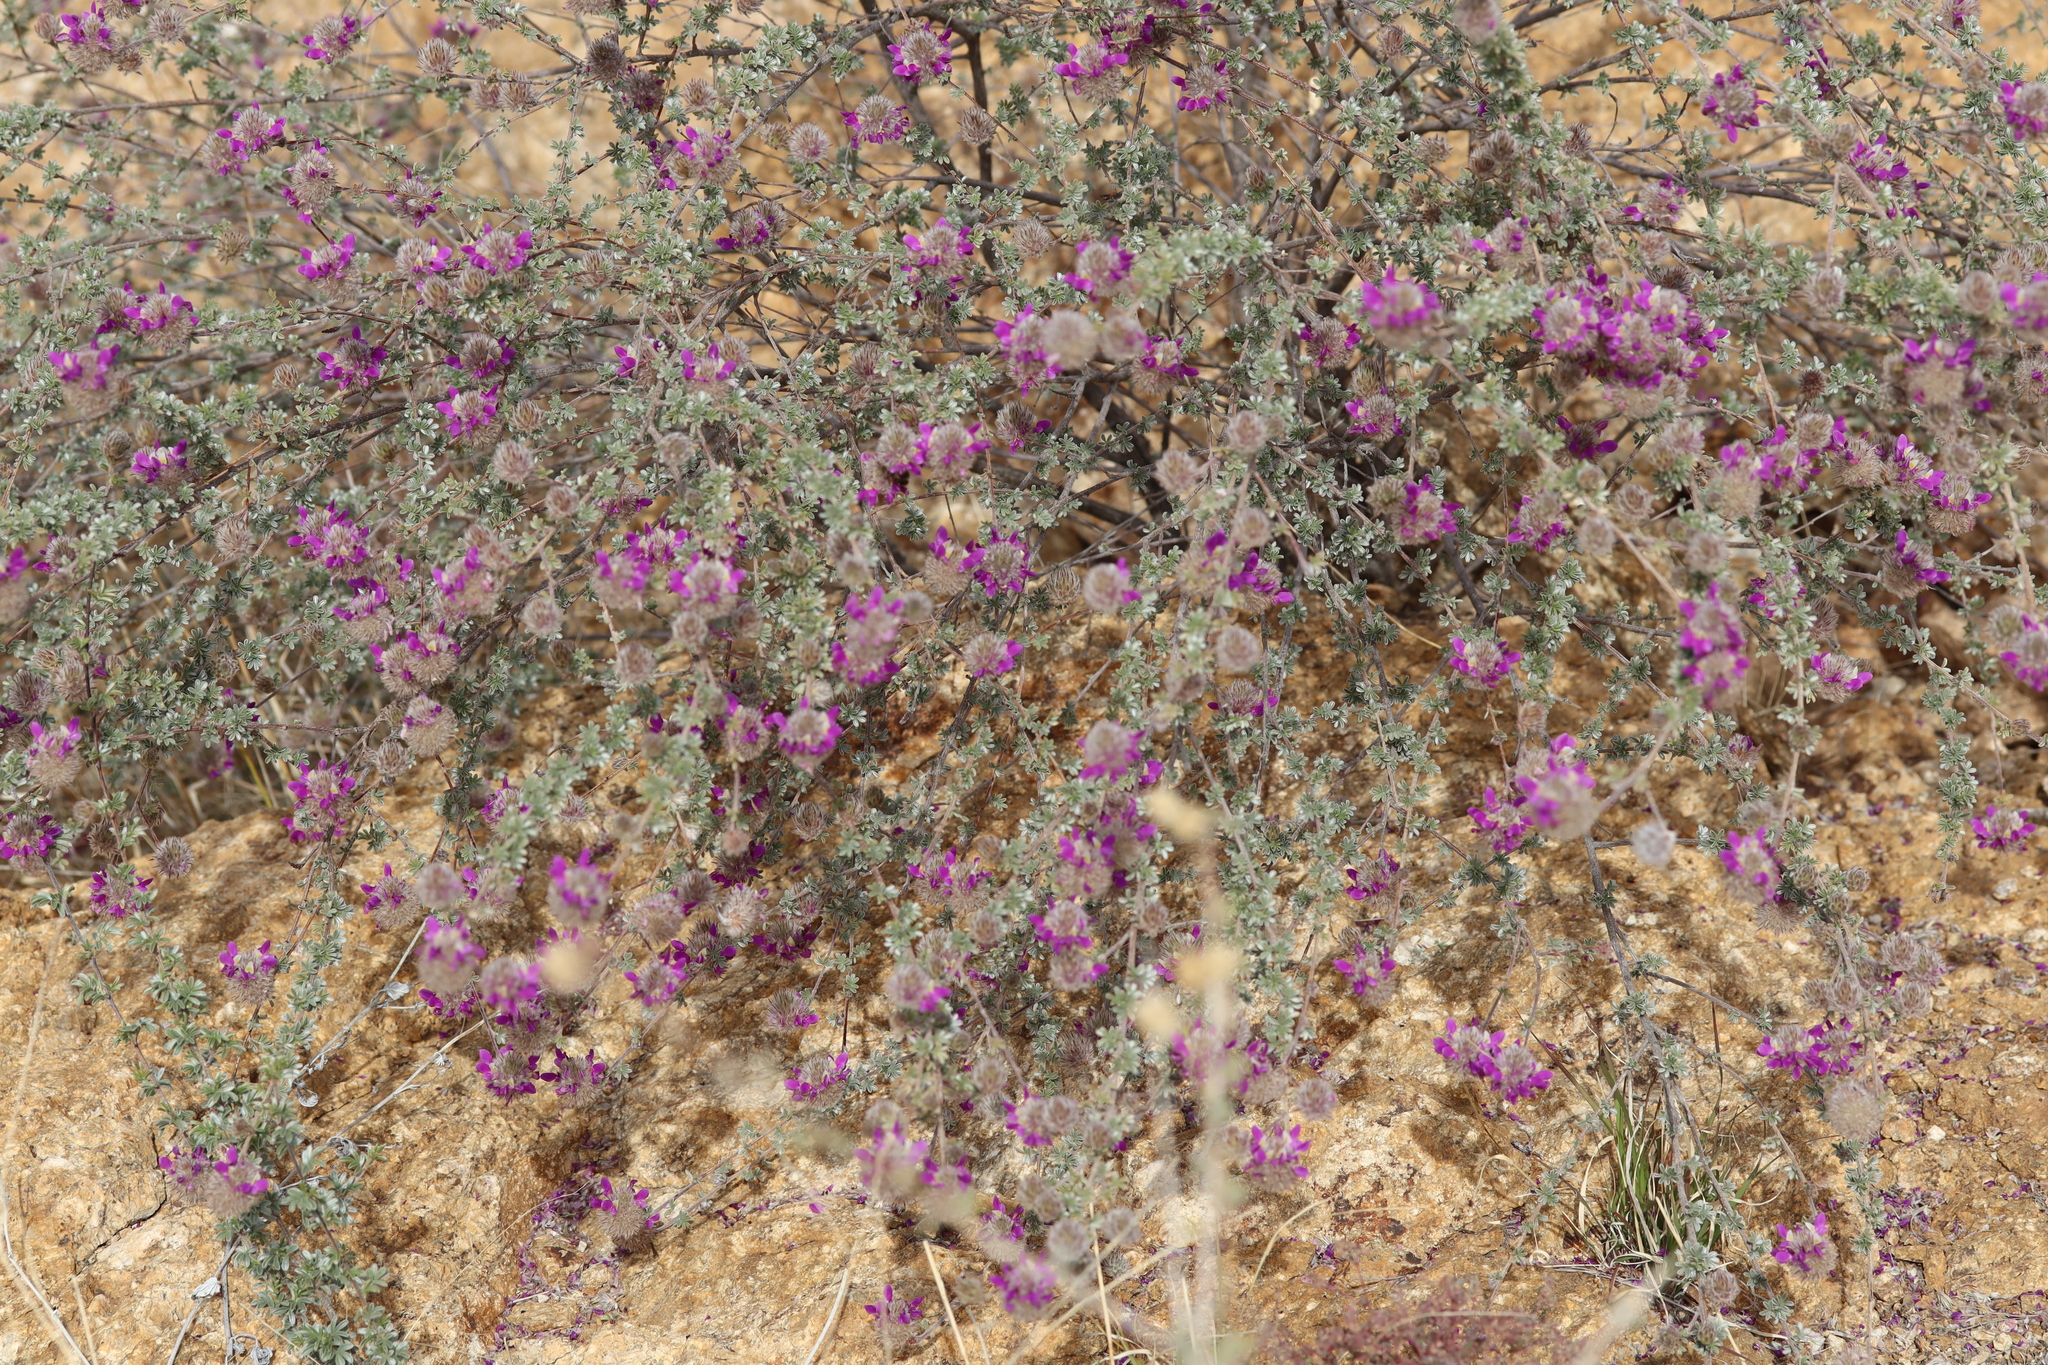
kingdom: Plantae
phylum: Tracheophyta
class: Magnoliopsida
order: Fabales
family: Fabaceae
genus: Dalea
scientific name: Dalea pulchra
